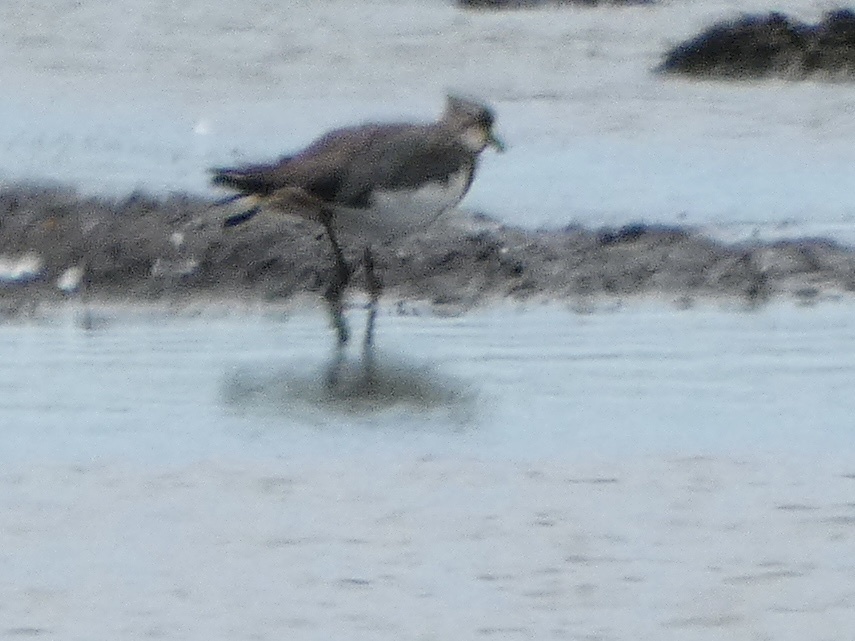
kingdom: Animalia
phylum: Chordata
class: Aves
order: Charadriiformes
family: Charadriidae
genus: Vanellus
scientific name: Vanellus vanellus
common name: Northern lapwing
